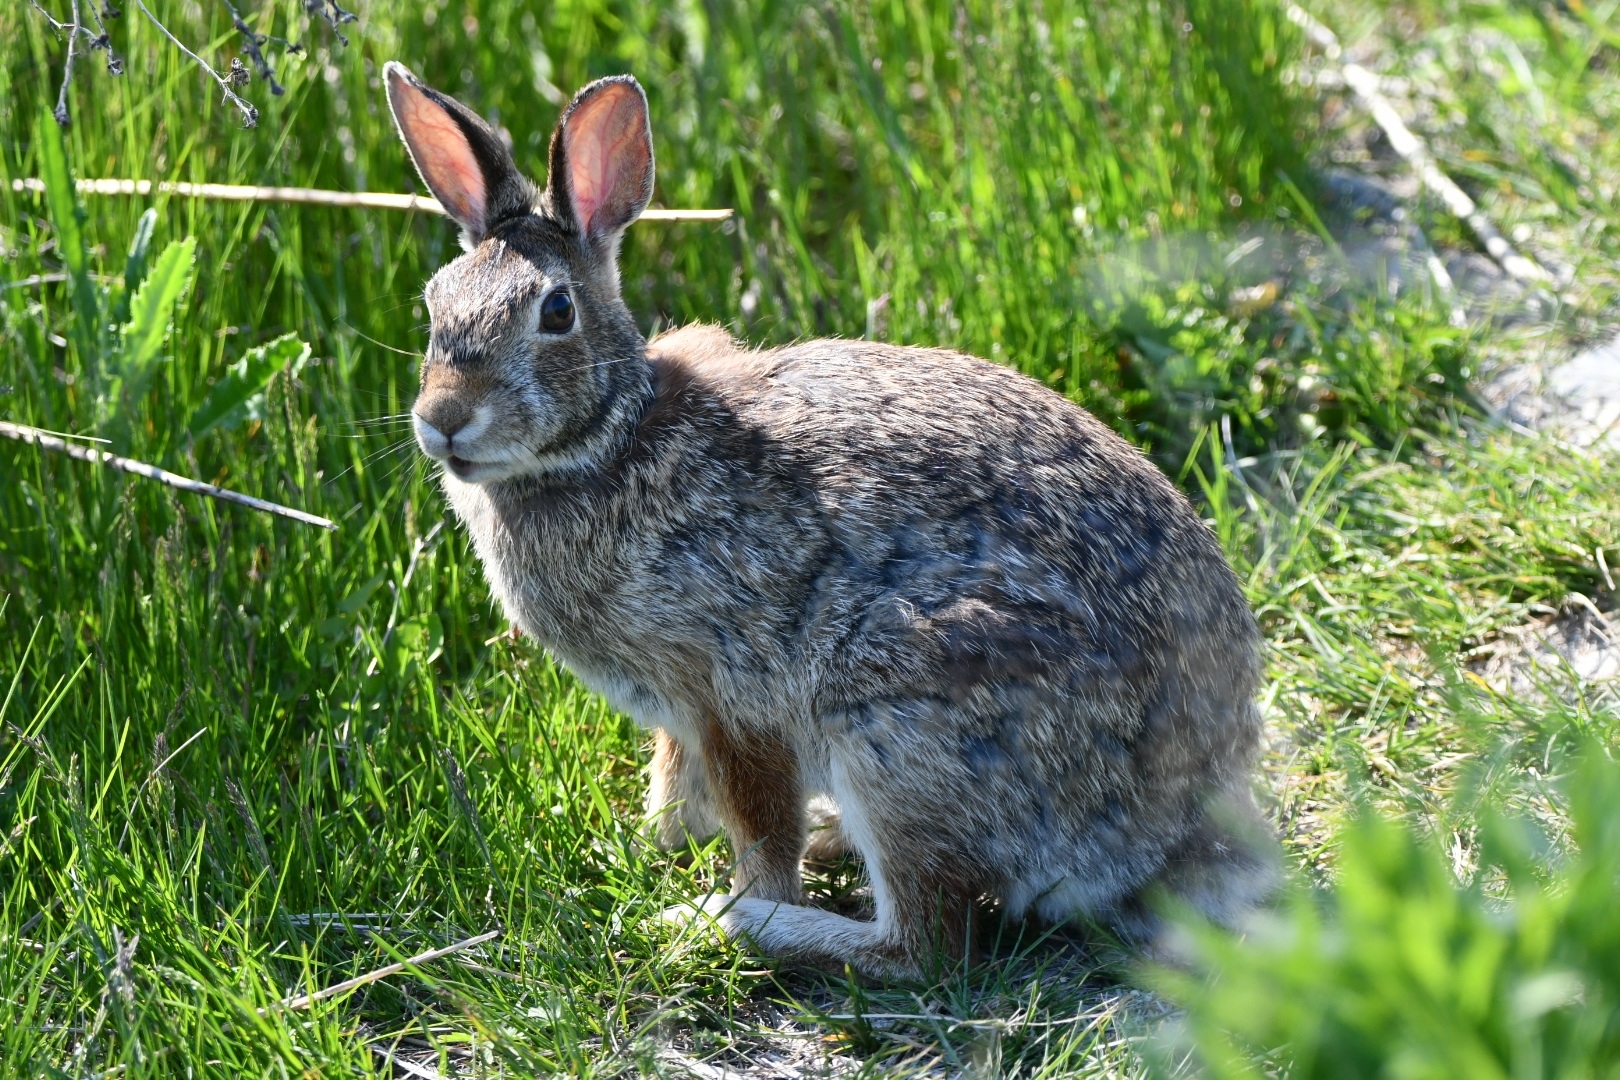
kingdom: Animalia
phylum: Chordata
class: Mammalia
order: Lagomorpha
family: Leporidae
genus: Sylvilagus
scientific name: Sylvilagus floridanus
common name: Eastern cottontail
